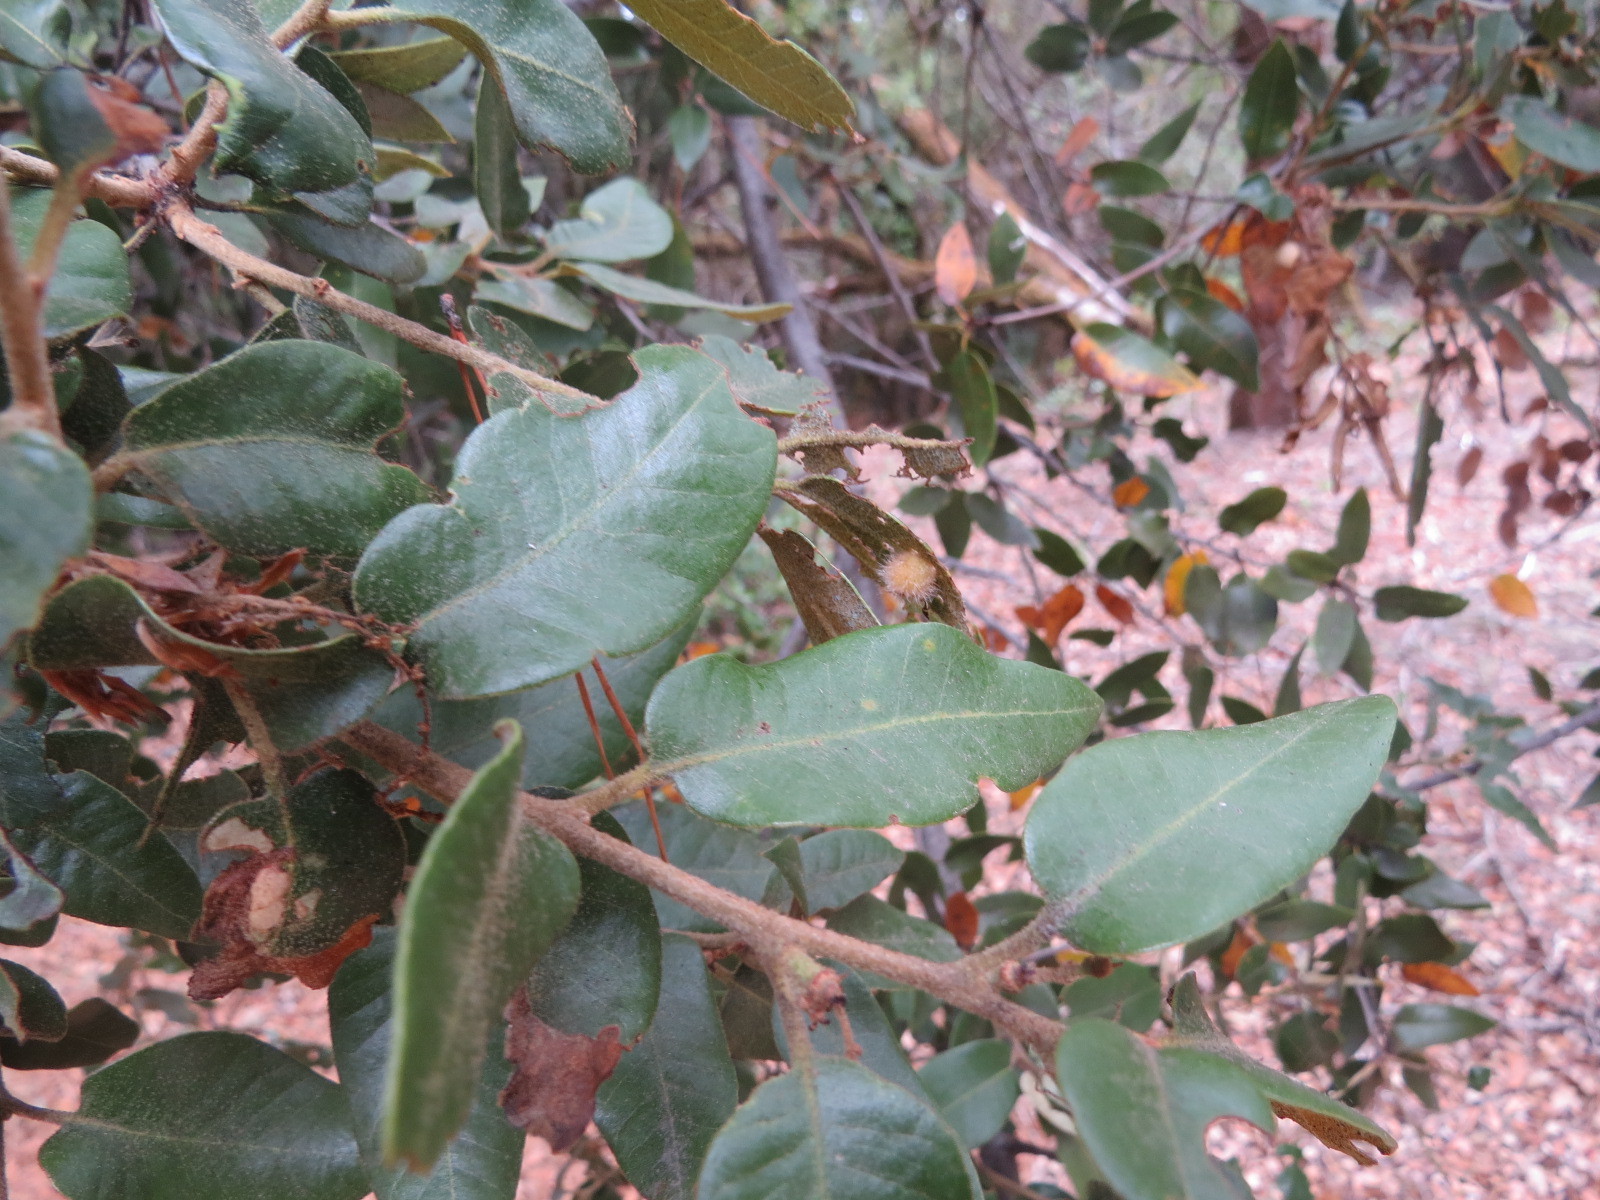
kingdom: Animalia
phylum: Arthropoda
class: Insecta
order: Hymenoptera
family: Cynipidae
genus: Disholandricus
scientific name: Disholandricus
